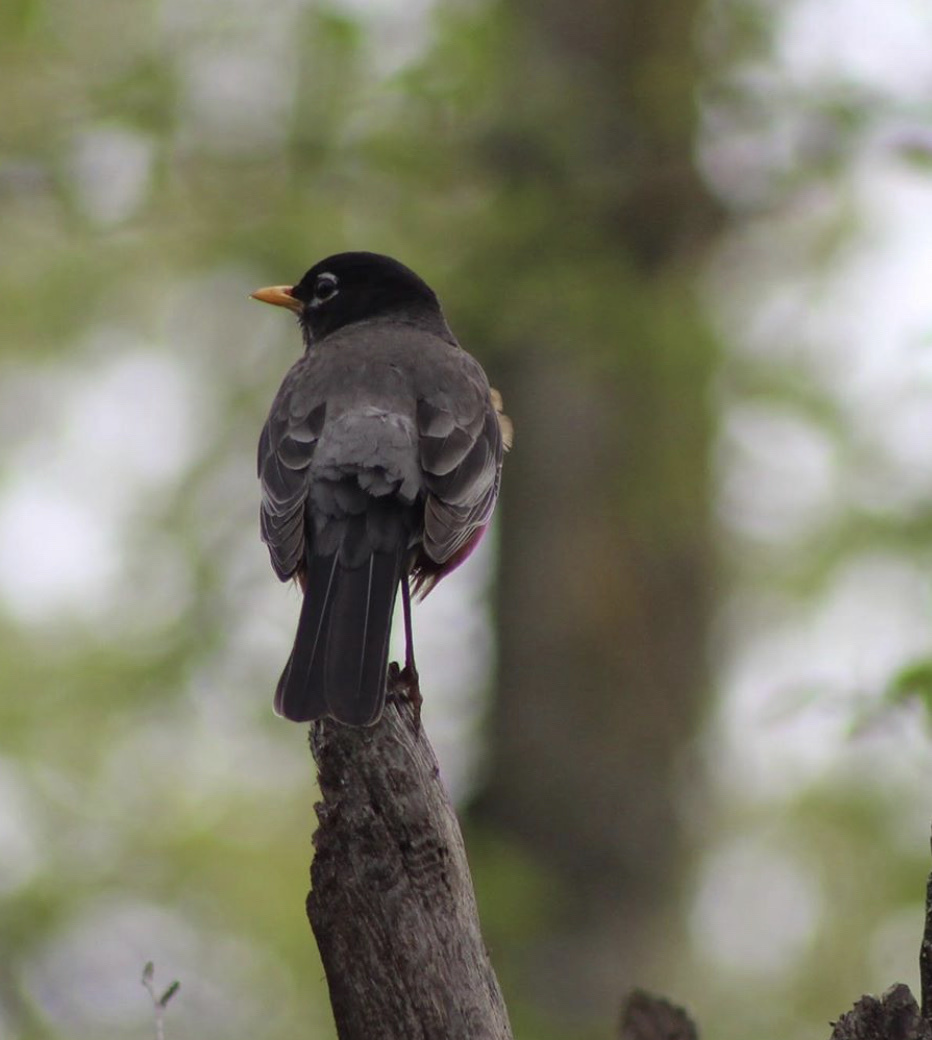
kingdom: Animalia
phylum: Chordata
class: Aves
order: Passeriformes
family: Turdidae
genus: Turdus
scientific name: Turdus migratorius
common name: American robin
